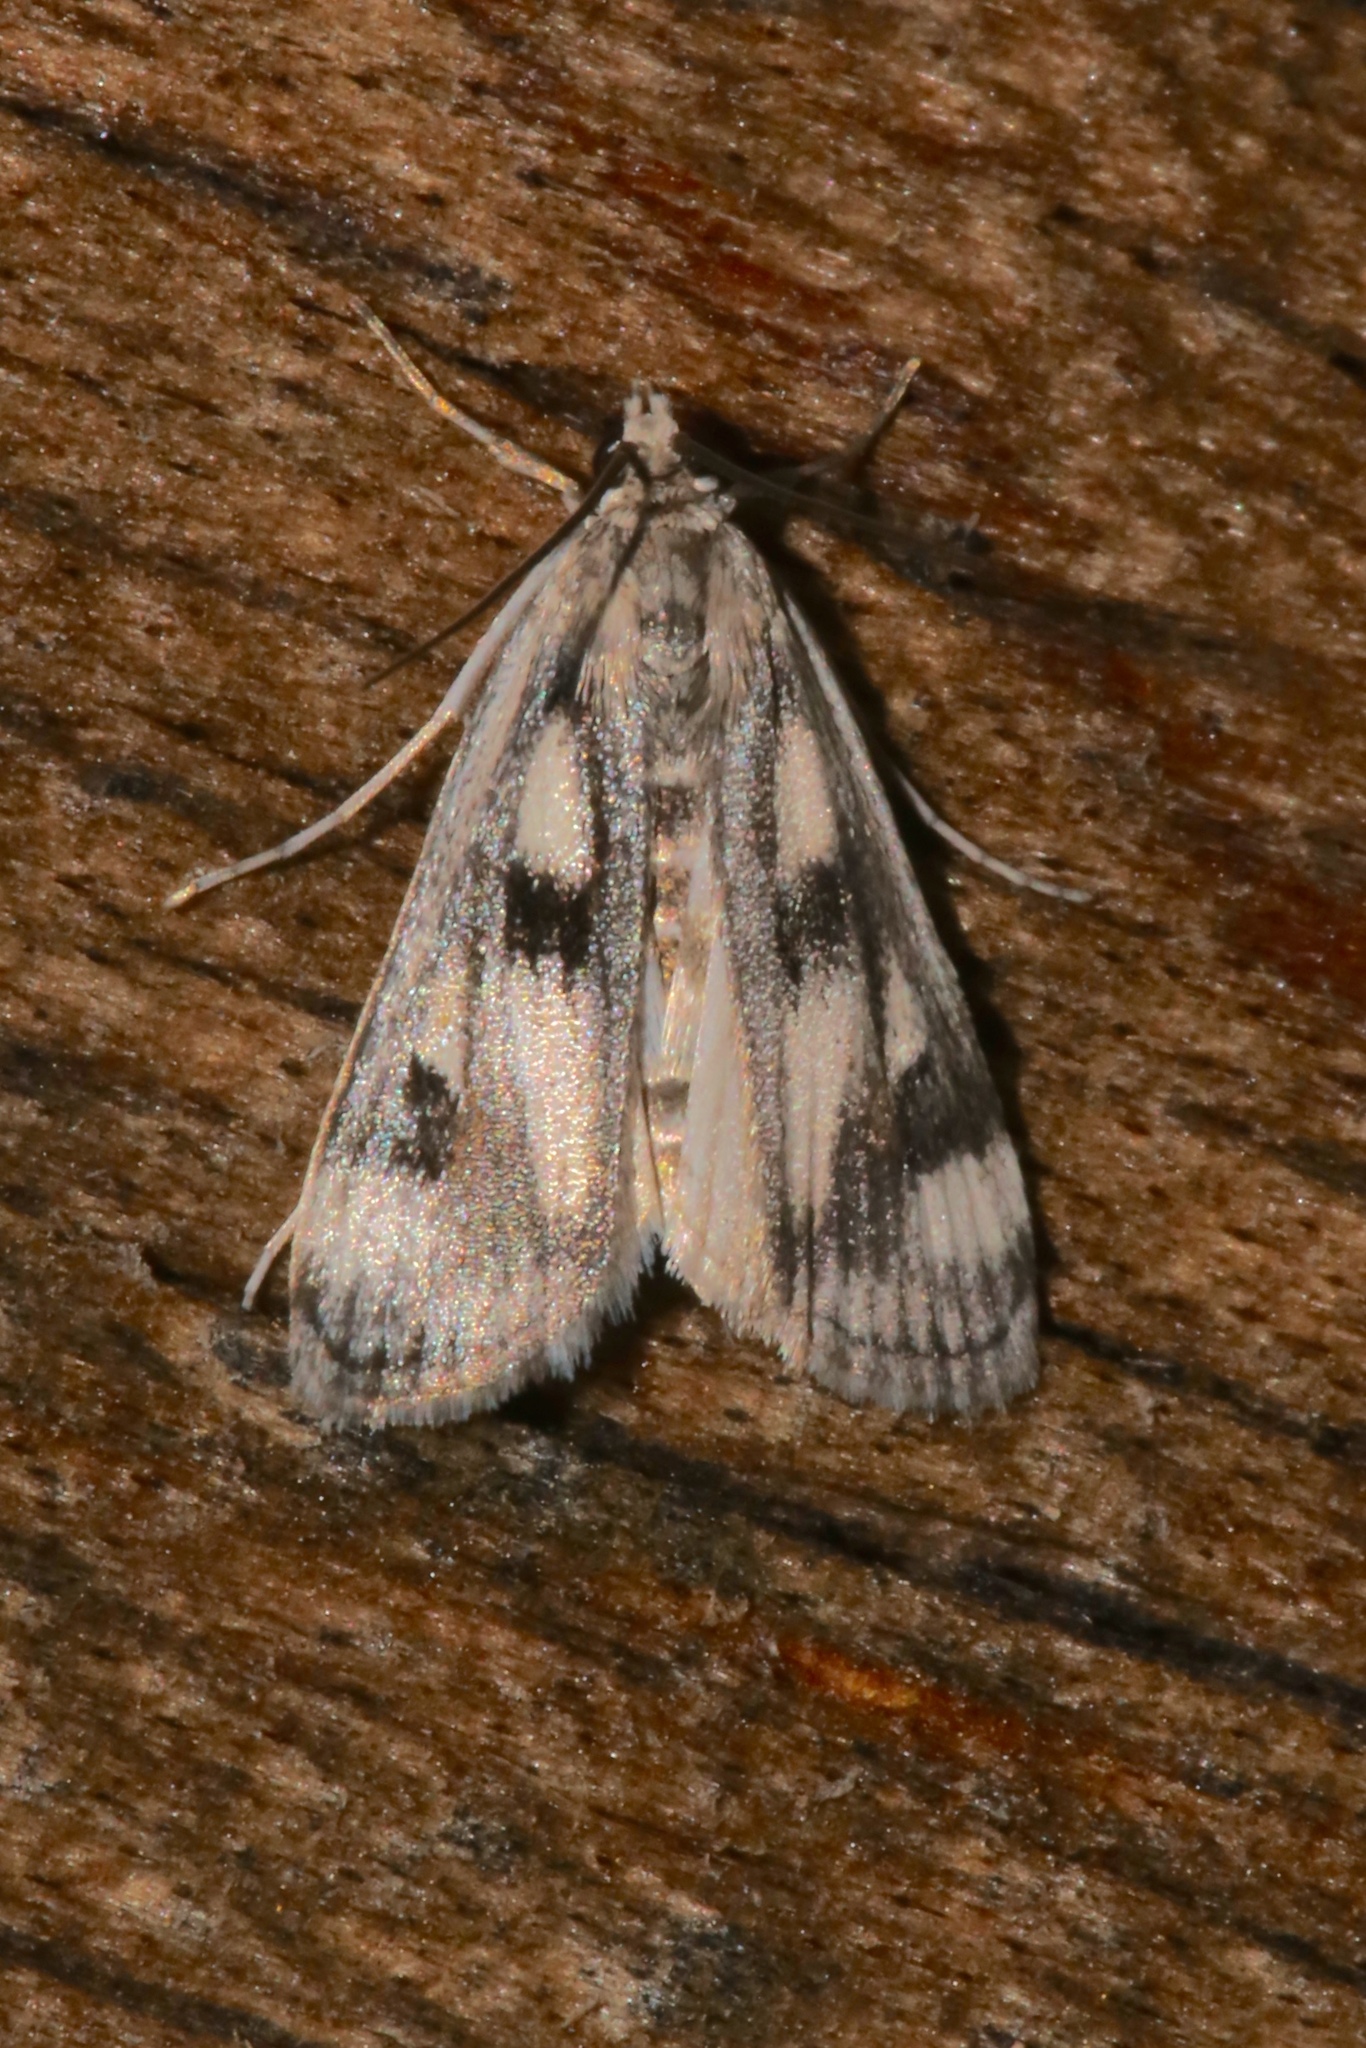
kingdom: Animalia
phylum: Arthropoda
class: Insecta
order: Lepidoptera
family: Crambidae
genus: Parapoynx
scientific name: Parapoynx maculalis
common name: Polymorphic pondweed moth
